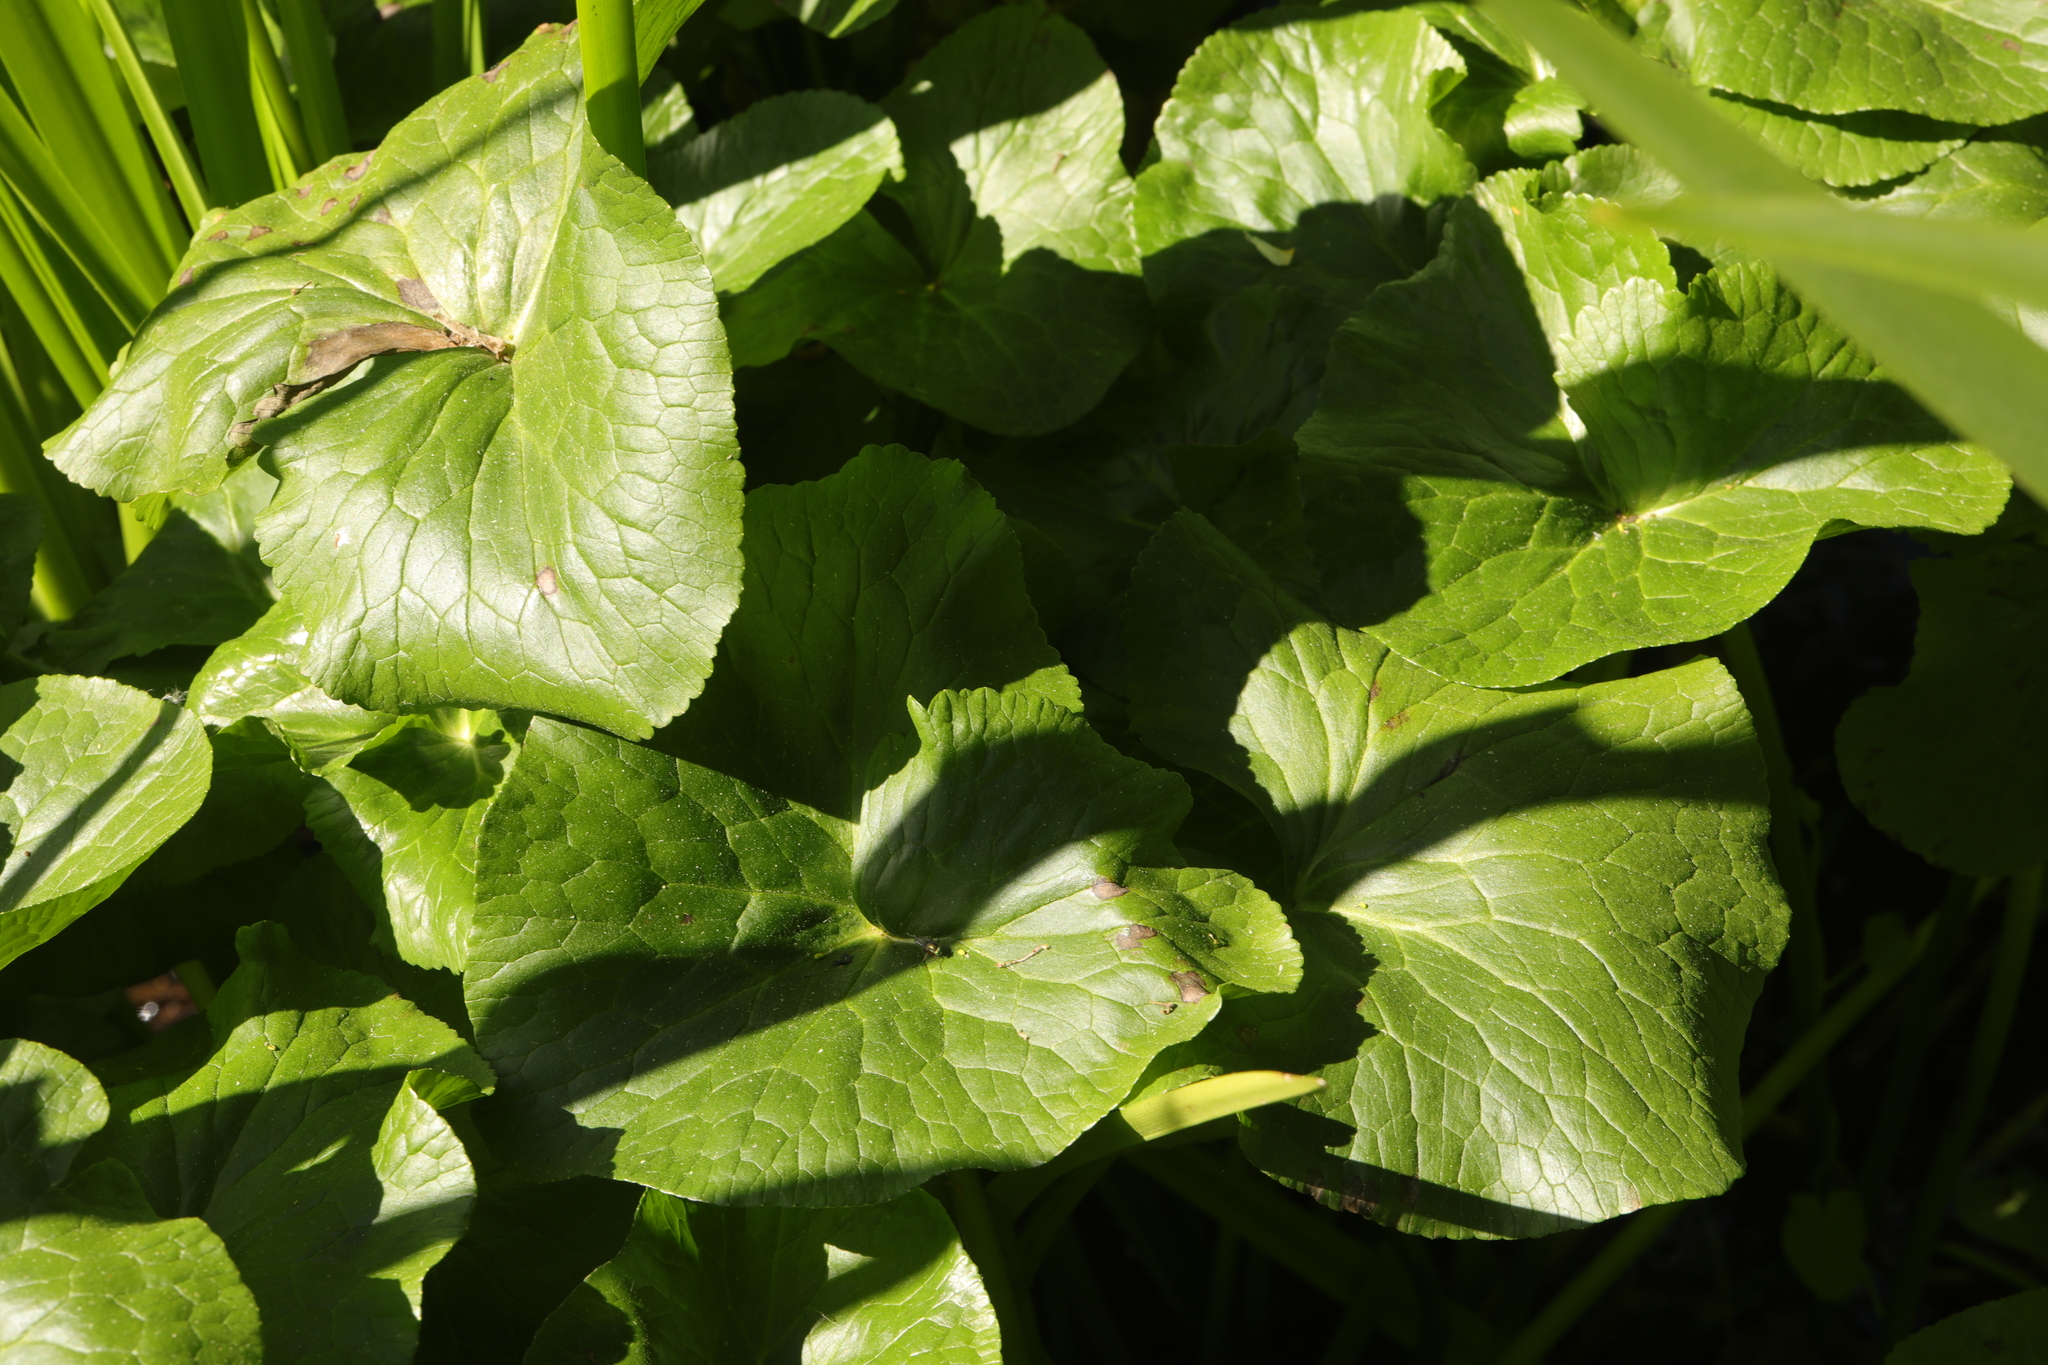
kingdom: Plantae
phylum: Tracheophyta
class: Magnoliopsida
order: Ranunculales
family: Ranunculaceae
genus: Caltha
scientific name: Caltha palustris
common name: Marsh marigold
